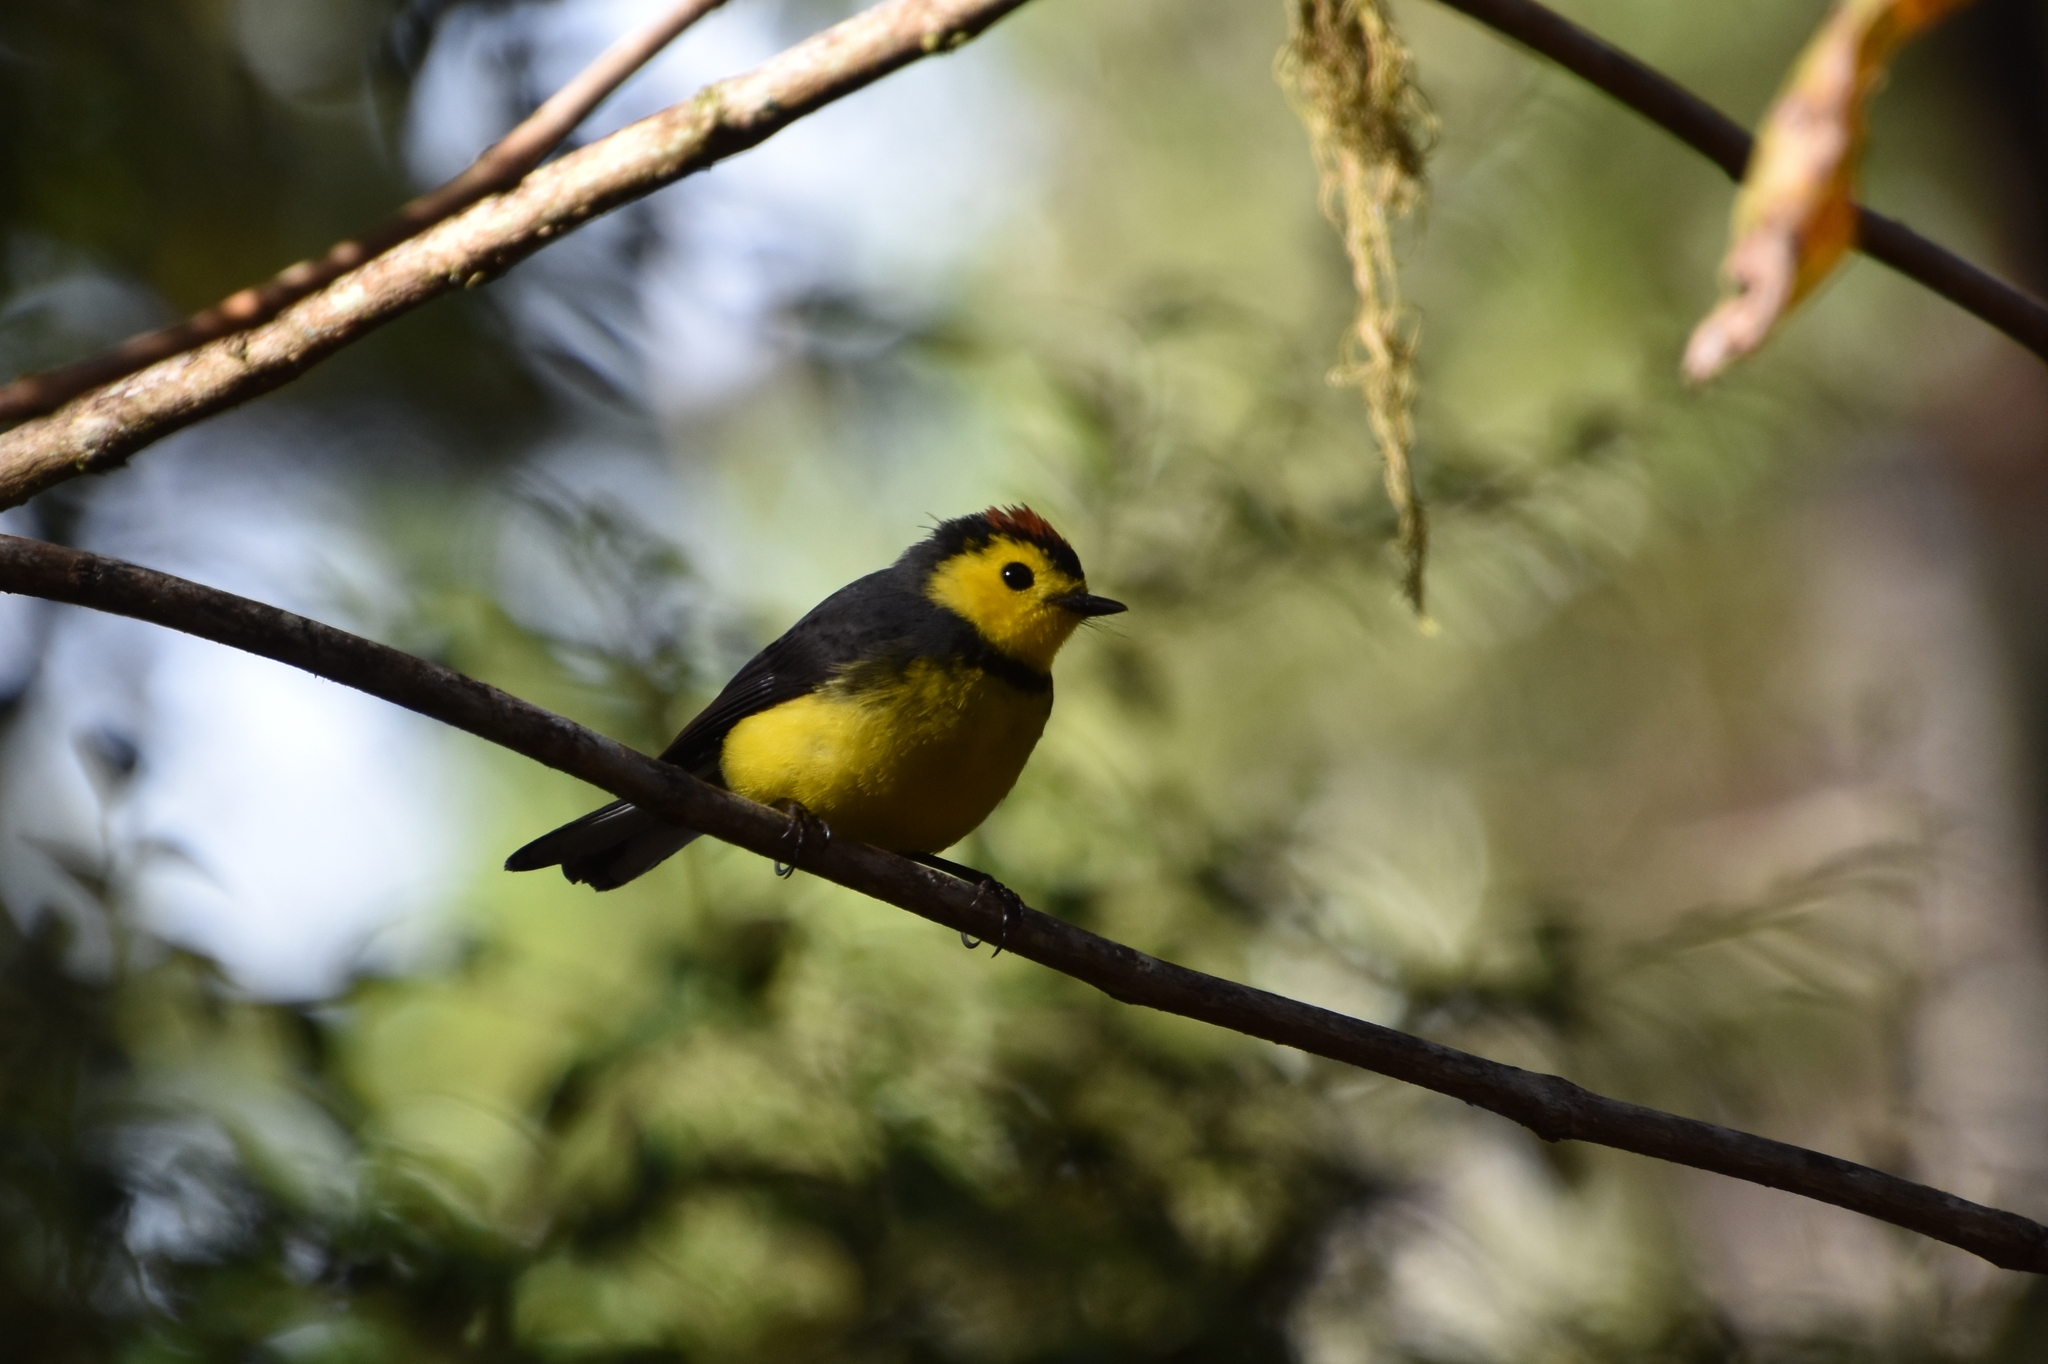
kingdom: Animalia
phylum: Chordata
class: Aves
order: Passeriformes
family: Parulidae
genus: Myioborus
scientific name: Myioborus torquatus
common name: Collared whitestart
